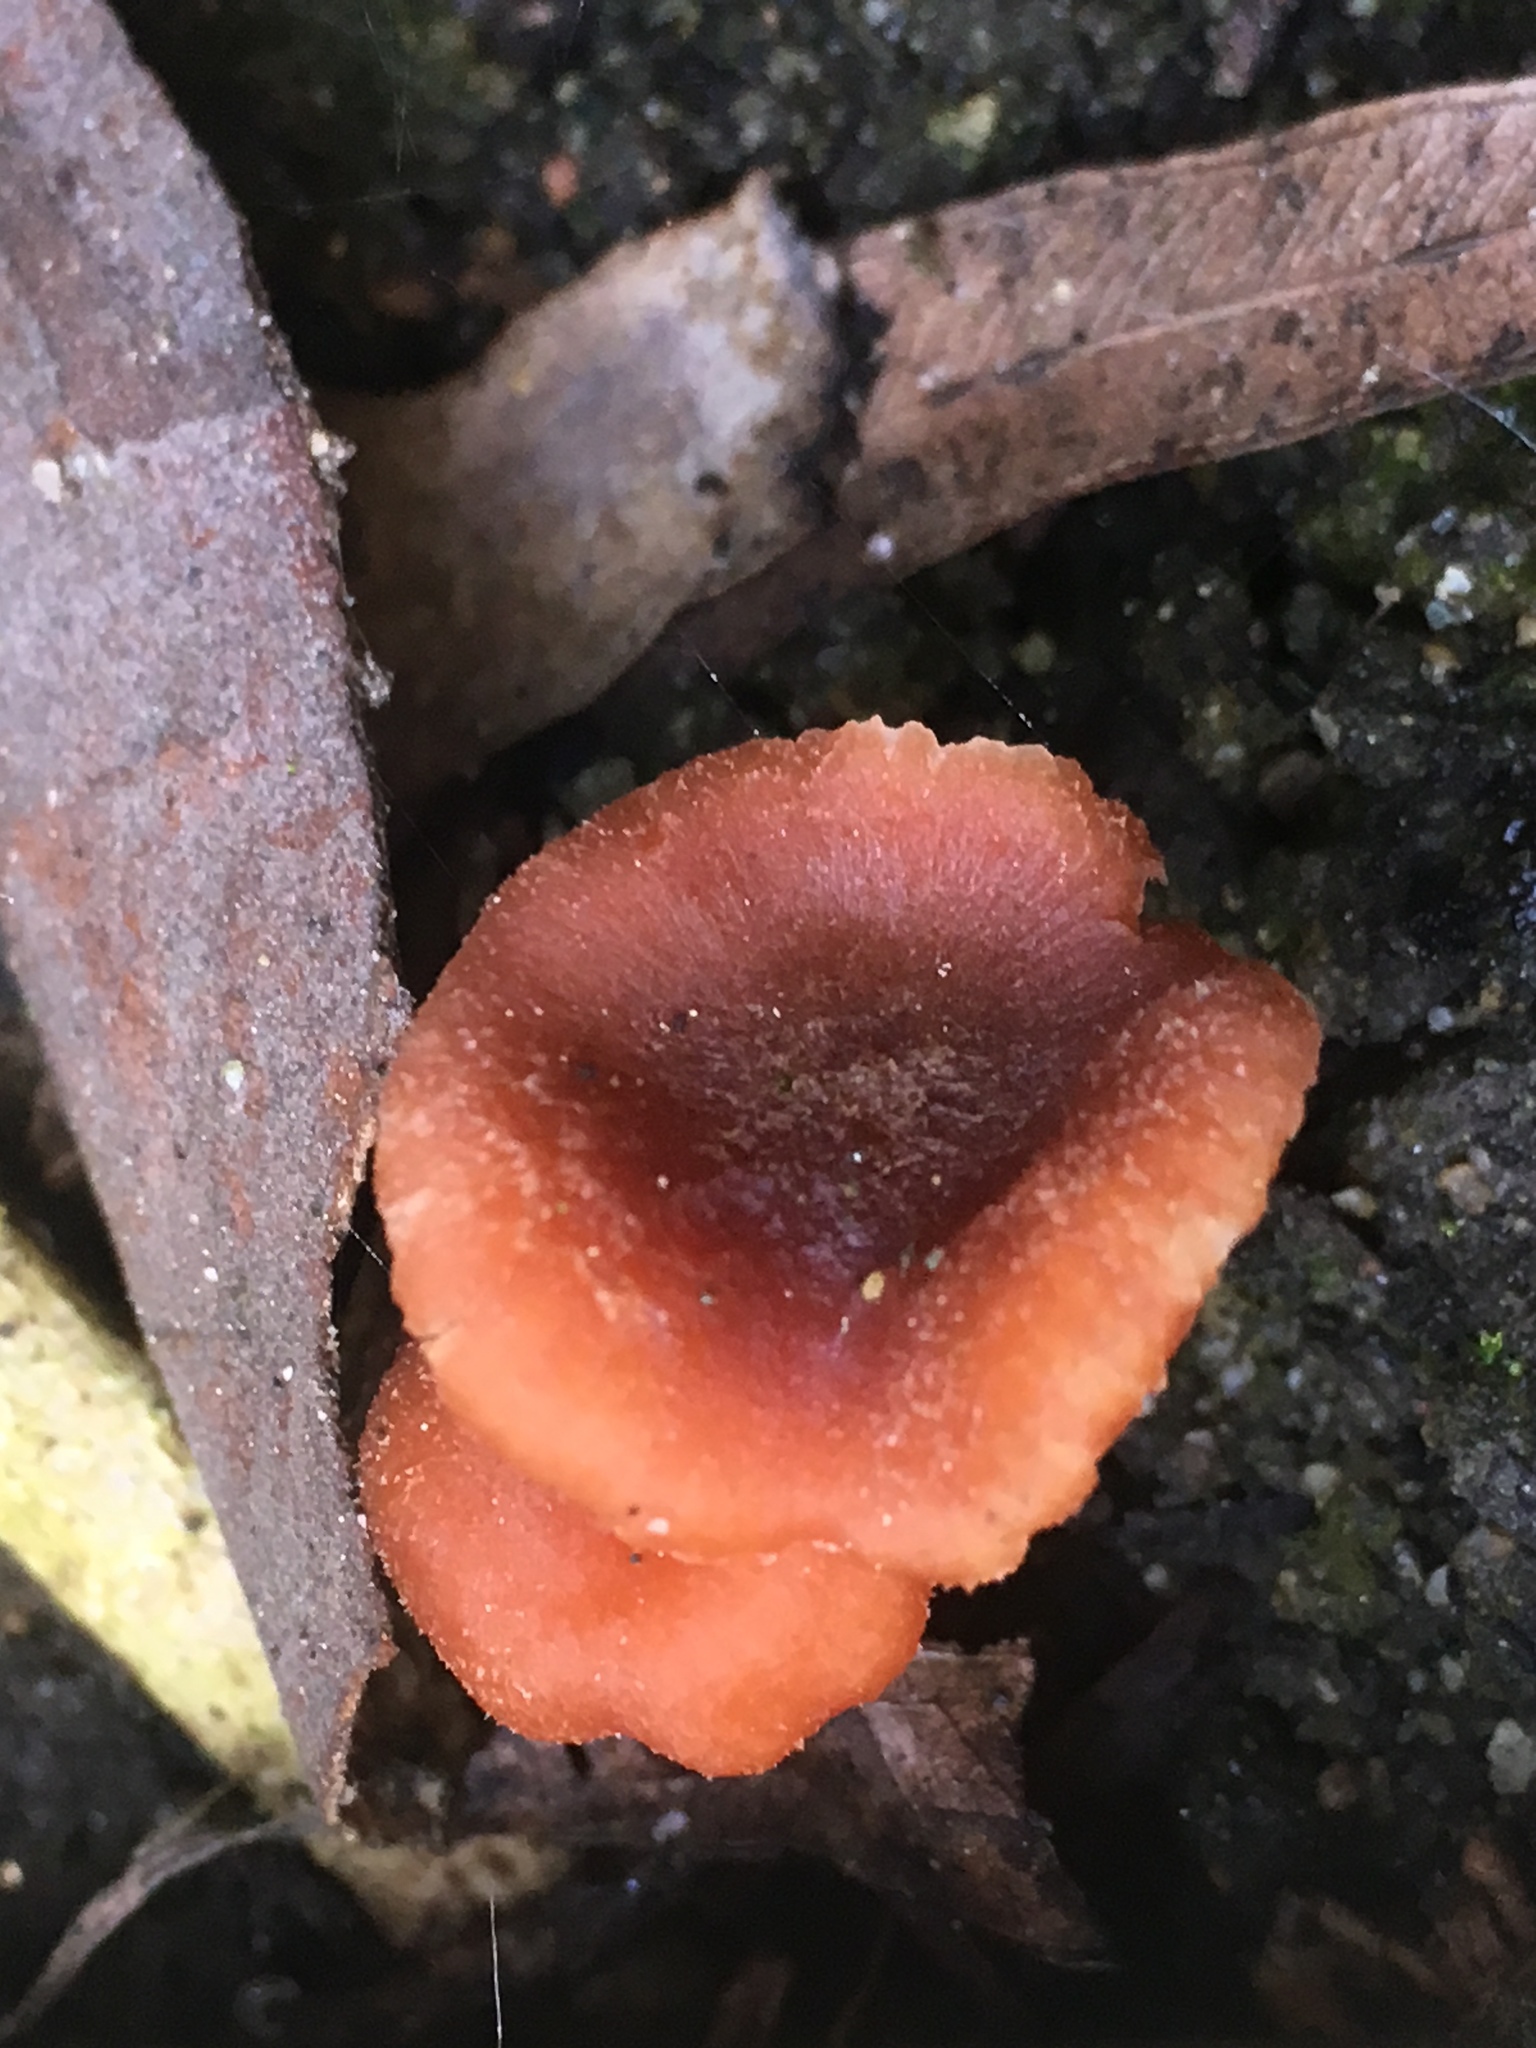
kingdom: Fungi
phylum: Basidiomycota
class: Agaricomycetes
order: Agaricales
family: Hydnangiaceae
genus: Laccaria
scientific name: Laccaria fraterna
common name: Gumtree deceiver
